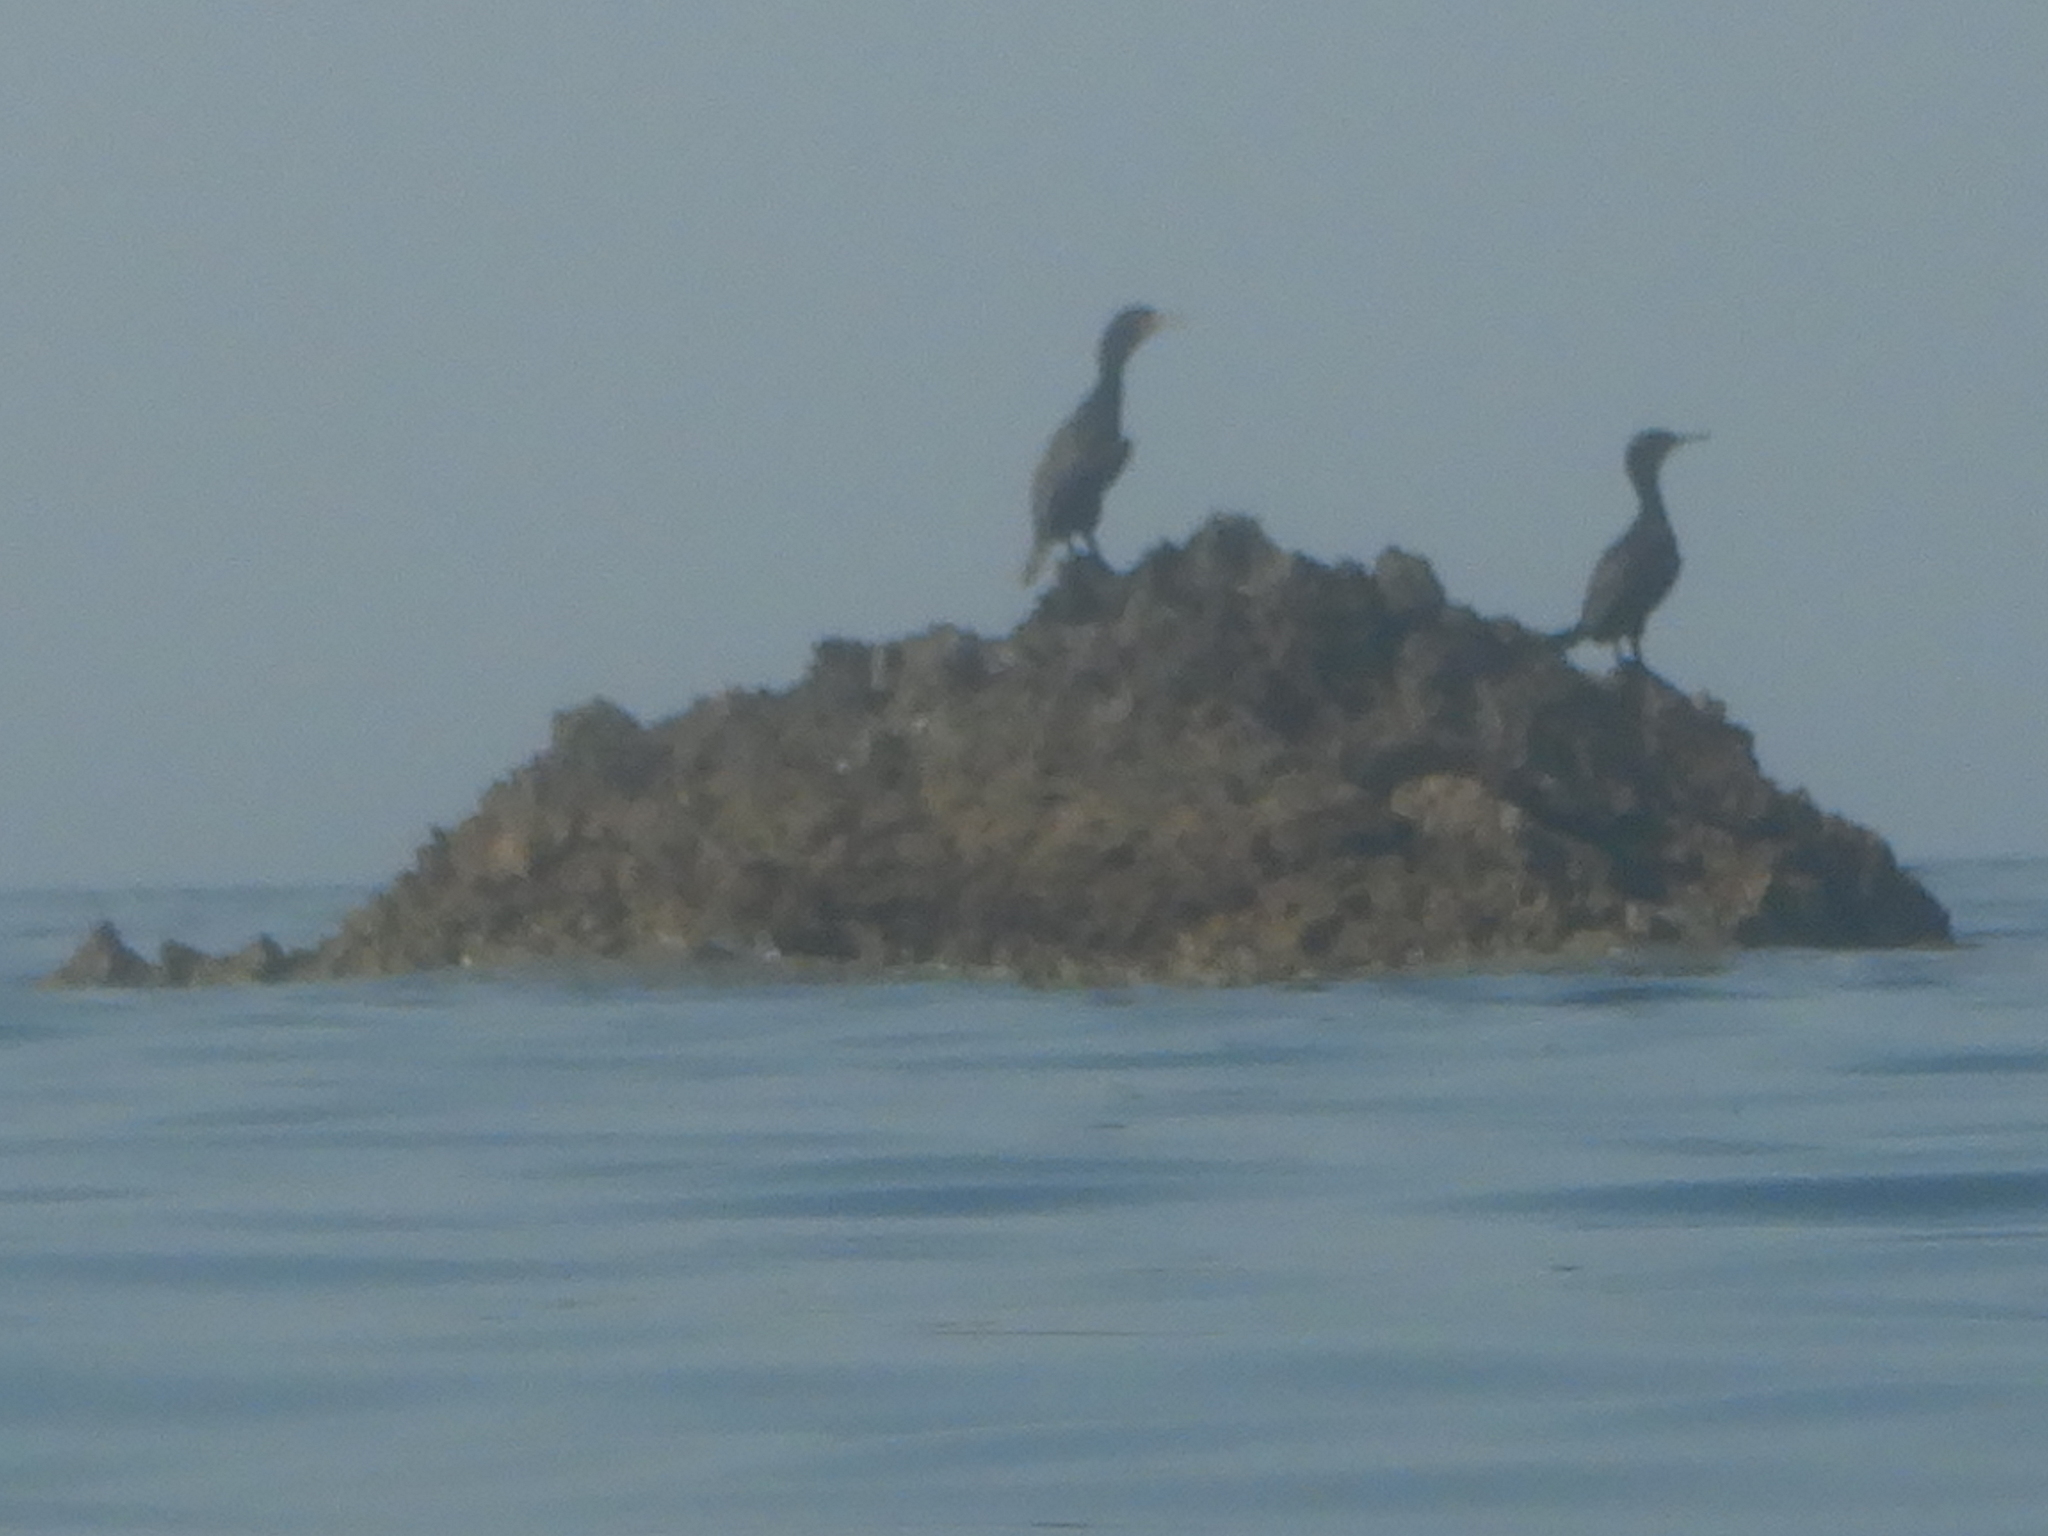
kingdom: Animalia
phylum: Chordata
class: Aves
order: Suliformes
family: Phalacrocoracidae
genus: Phalacrocorax
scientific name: Phalacrocorax aristotelis
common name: European shag
